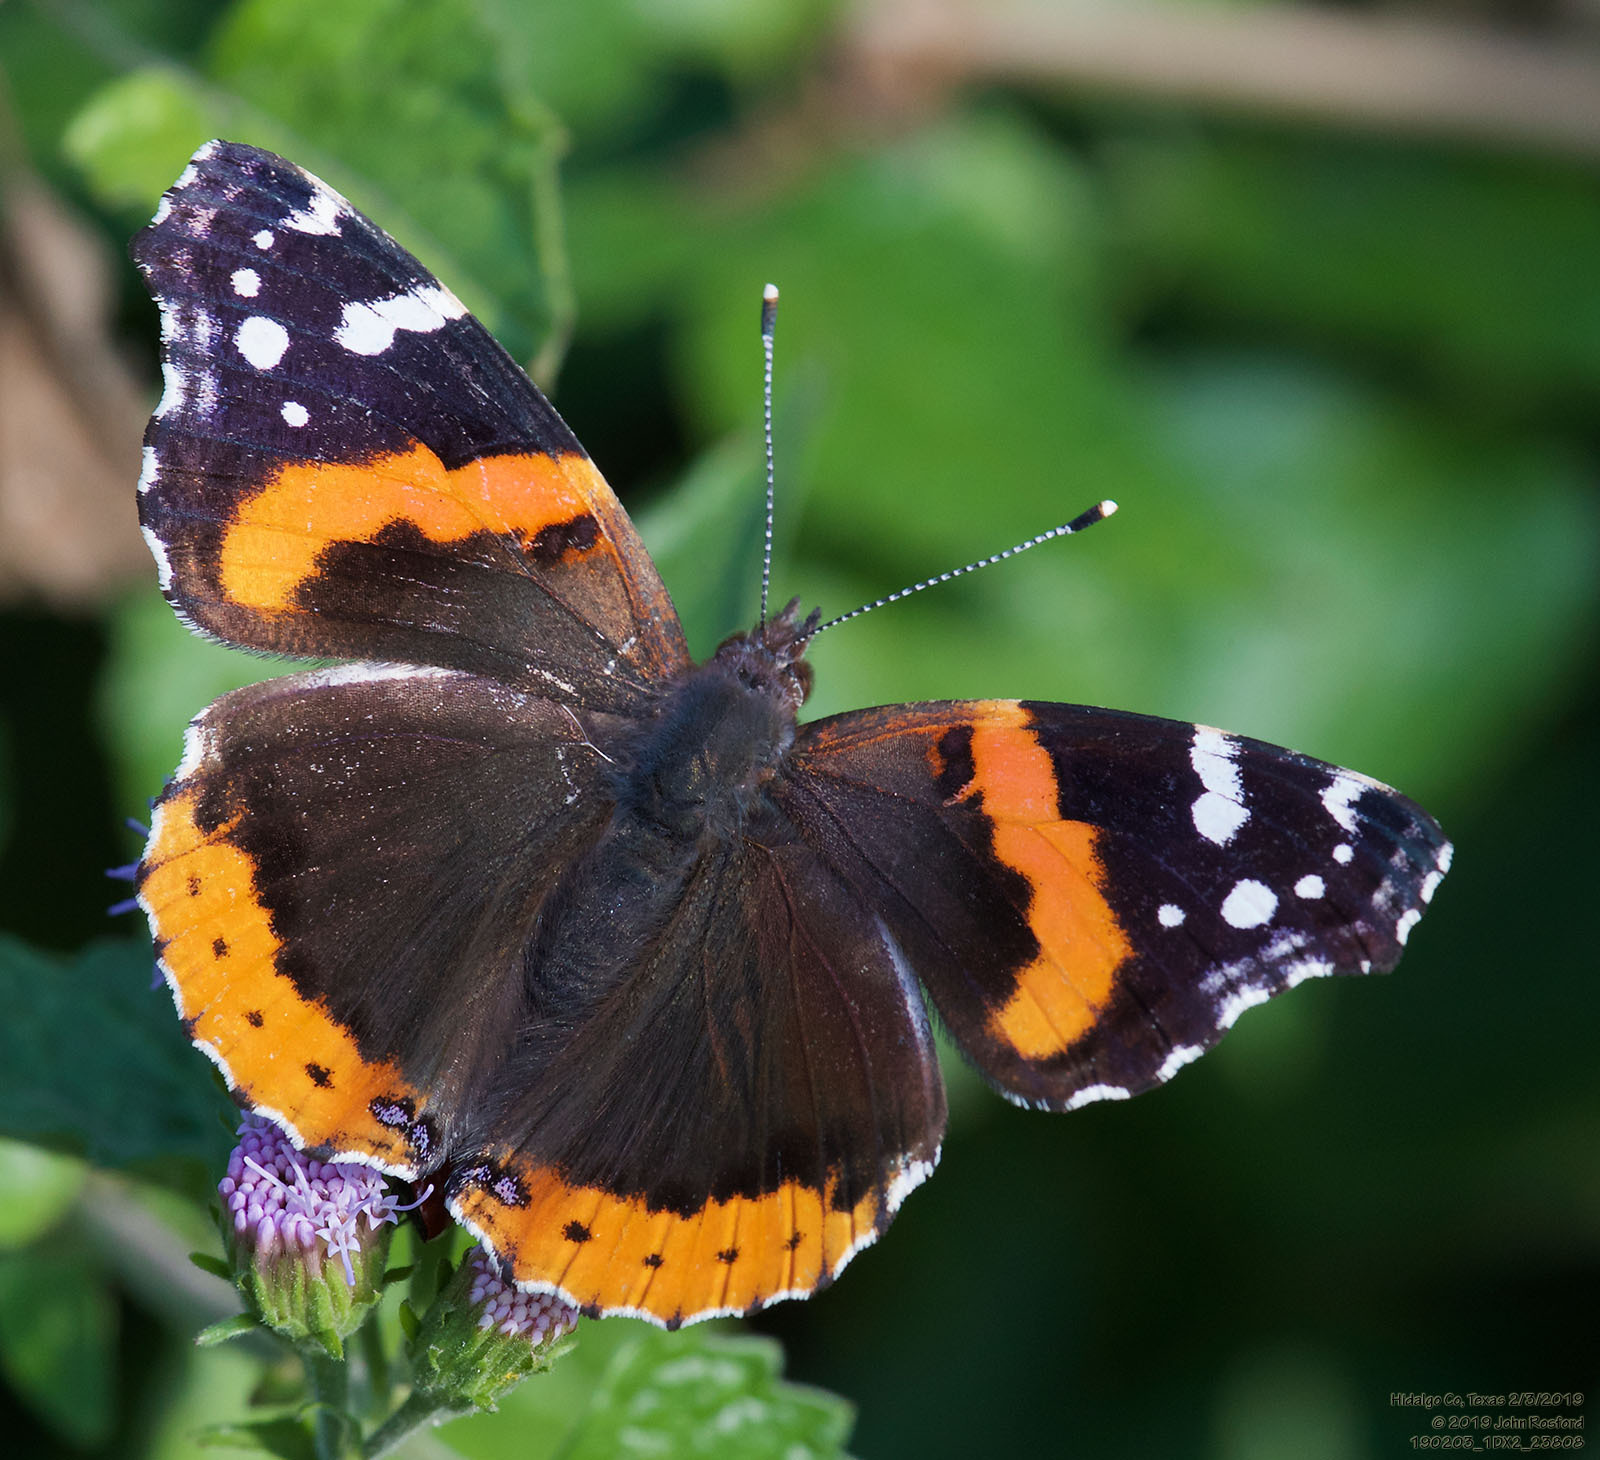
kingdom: Animalia
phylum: Arthropoda
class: Insecta
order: Lepidoptera
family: Nymphalidae
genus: Vanessa
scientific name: Vanessa atalanta
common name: Red admiral
